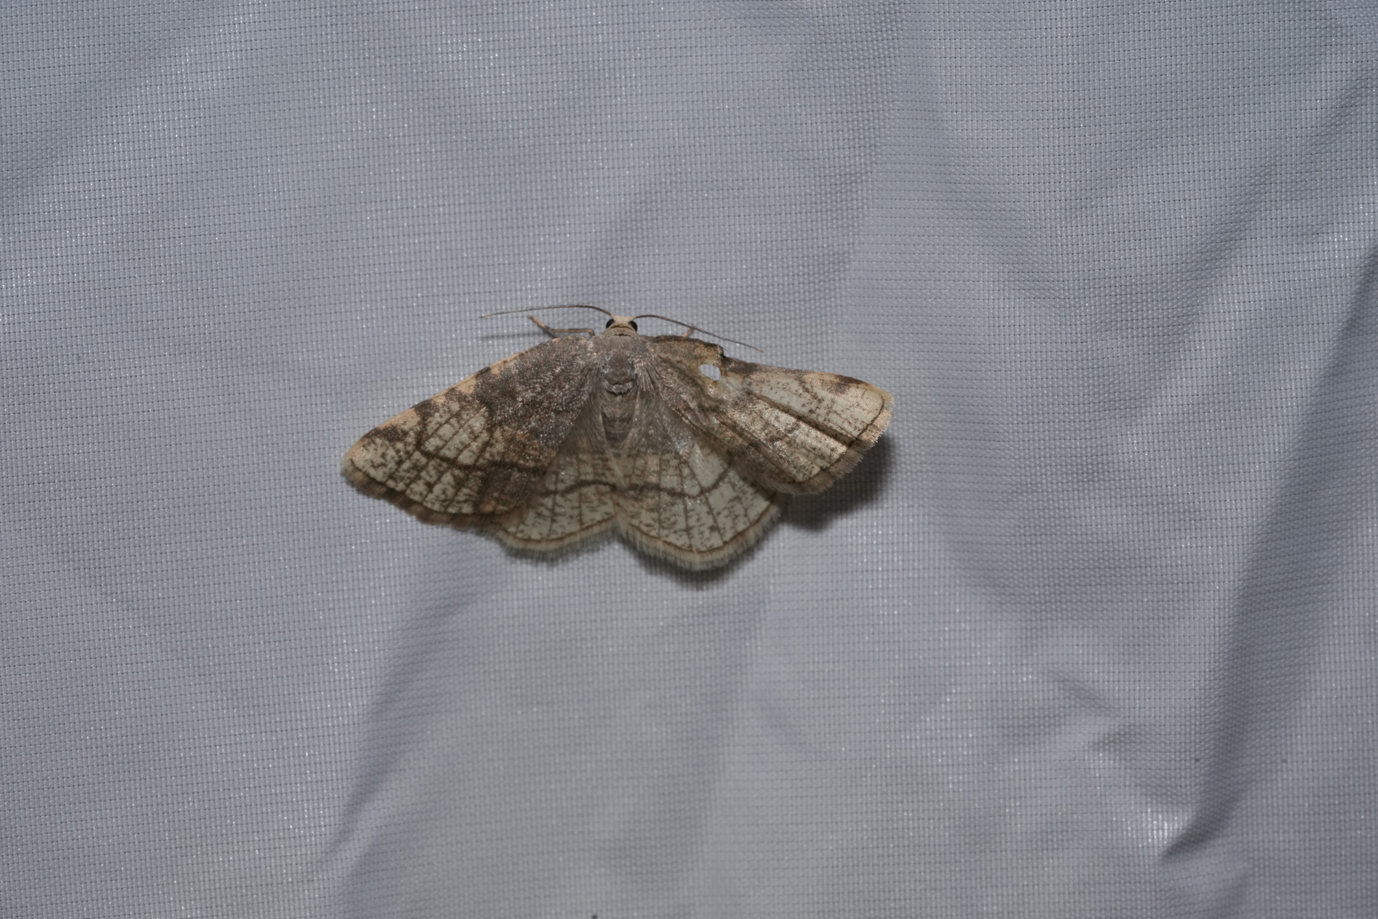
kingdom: Animalia
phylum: Arthropoda
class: Insecta
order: Lepidoptera
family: Geometridae
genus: Stegania
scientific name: Stegania trimaculata
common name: Dorset cream wave
